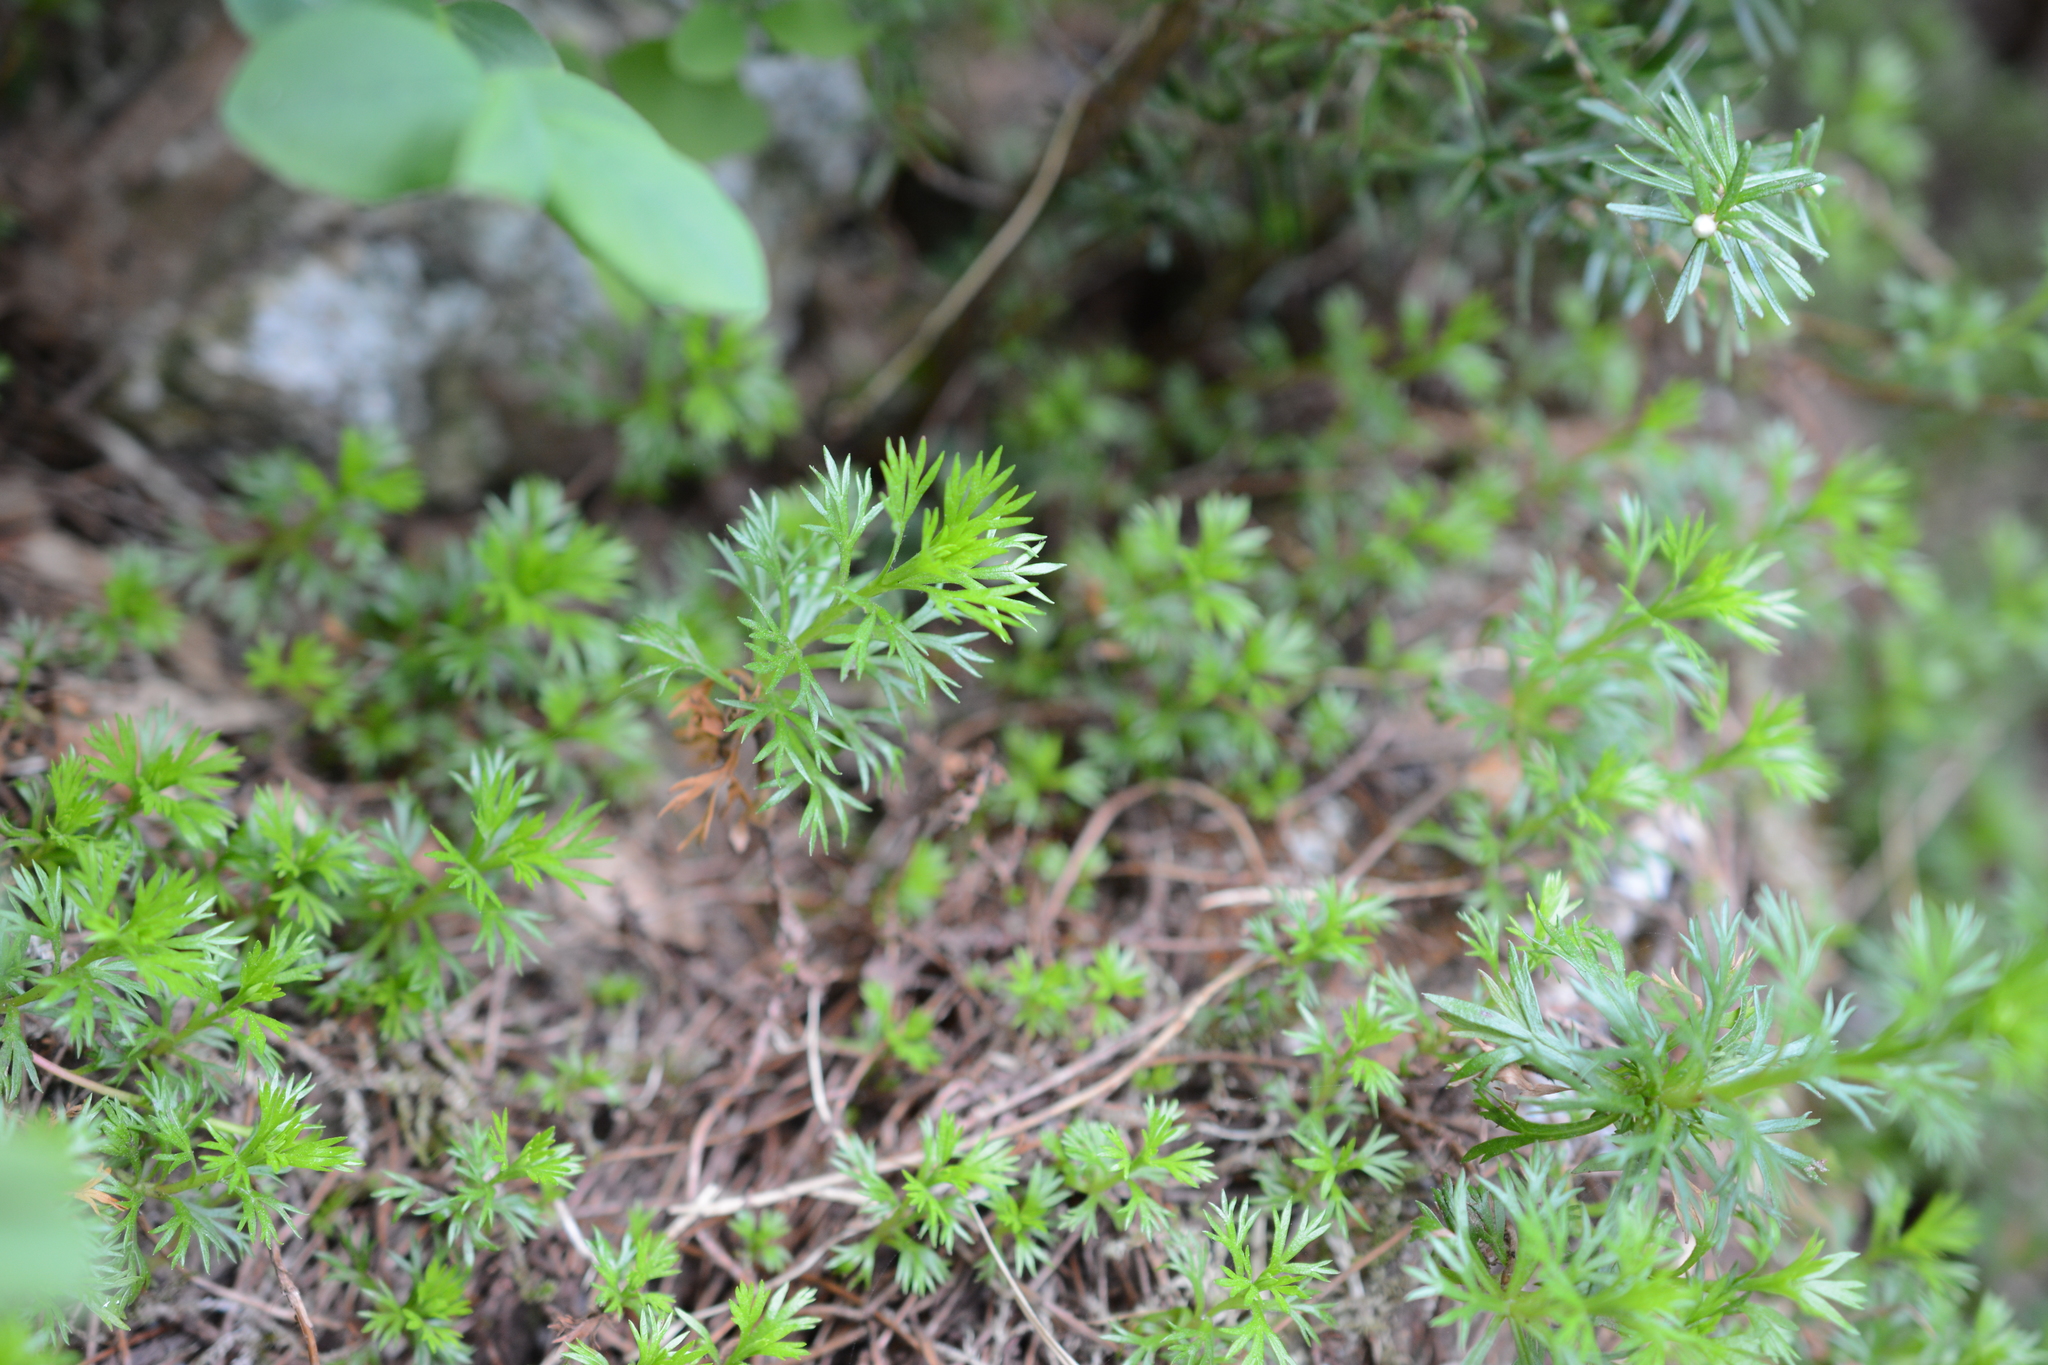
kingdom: Plantae
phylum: Tracheophyta
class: Magnoliopsida
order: Rosales
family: Rosaceae
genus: Luetkea
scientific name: Luetkea pectinata
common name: Partridgefoot
